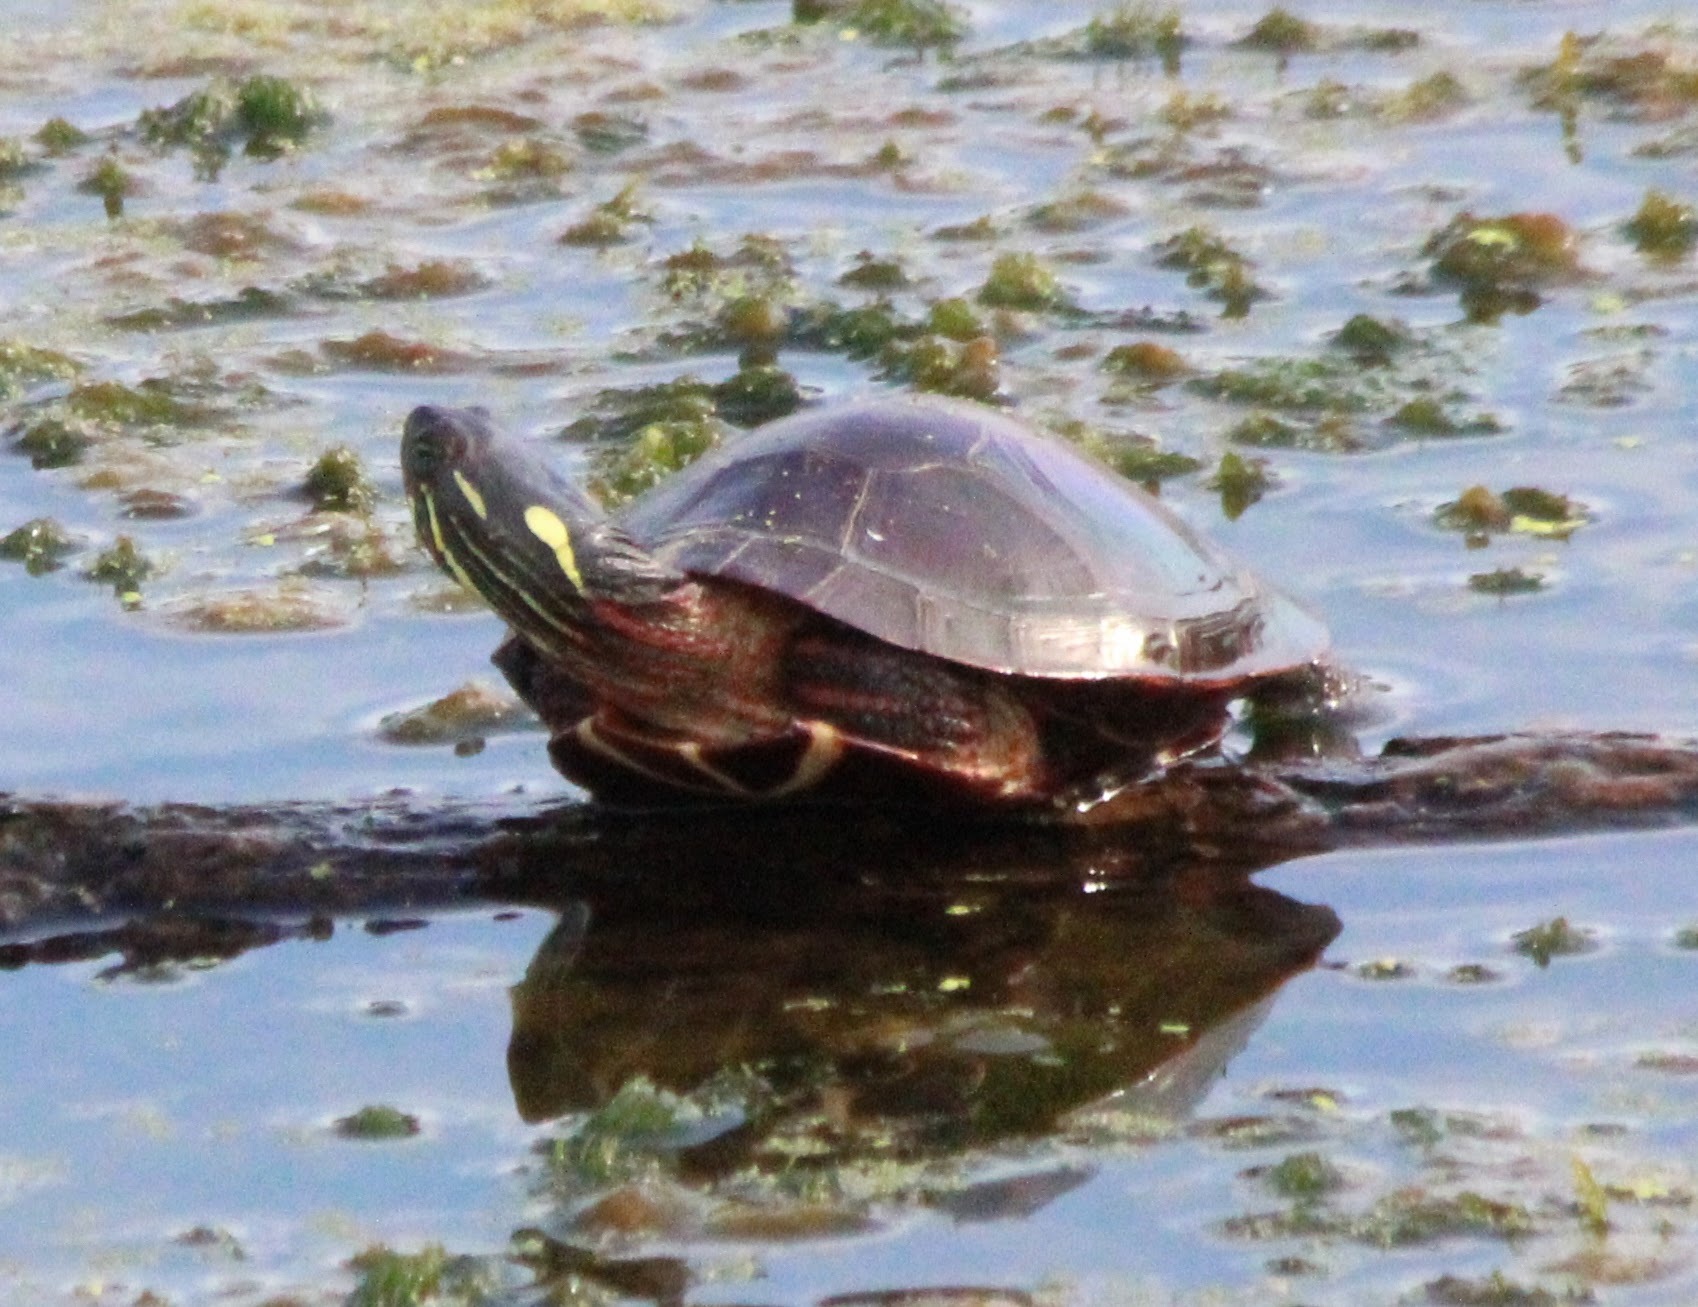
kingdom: Animalia
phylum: Chordata
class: Testudines
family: Emydidae
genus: Chrysemys
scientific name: Chrysemys picta
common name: Painted turtle
